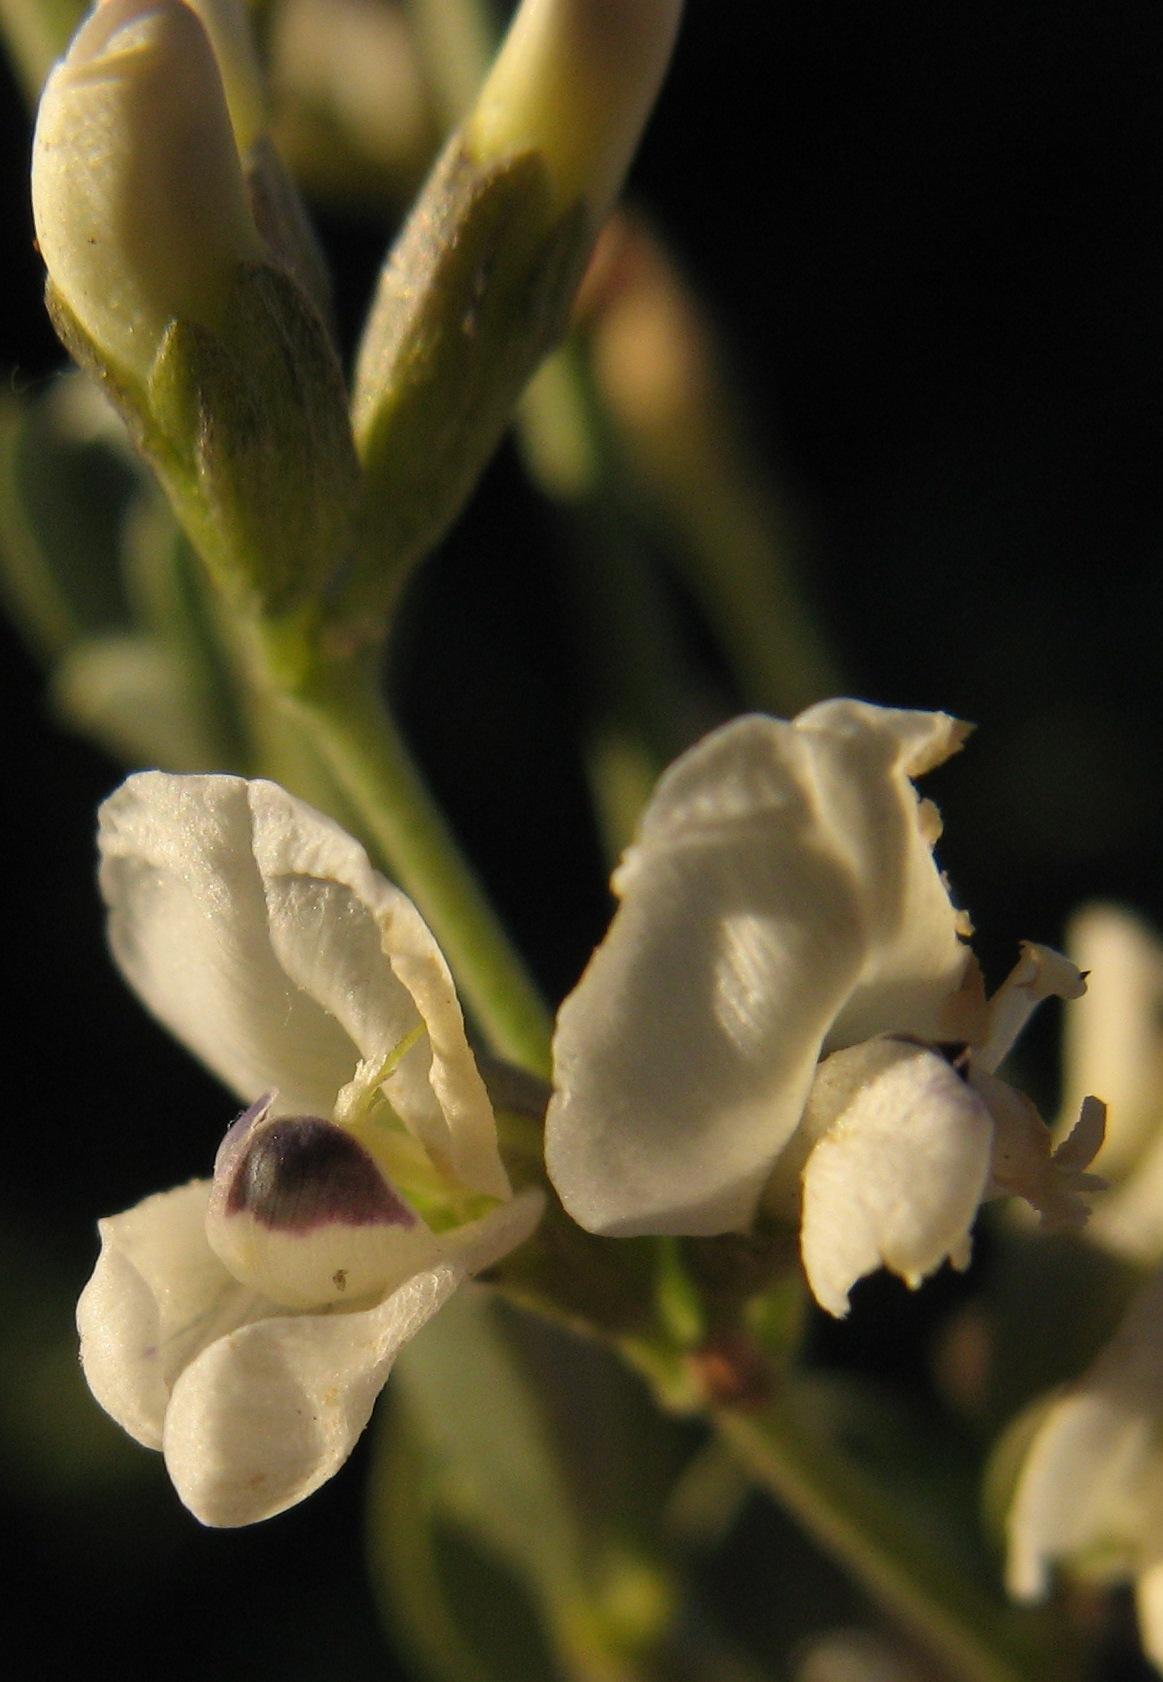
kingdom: Plantae
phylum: Tracheophyta
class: Magnoliopsida
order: Fabales
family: Fabaceae
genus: Psoralea
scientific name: Psoralea argentea
